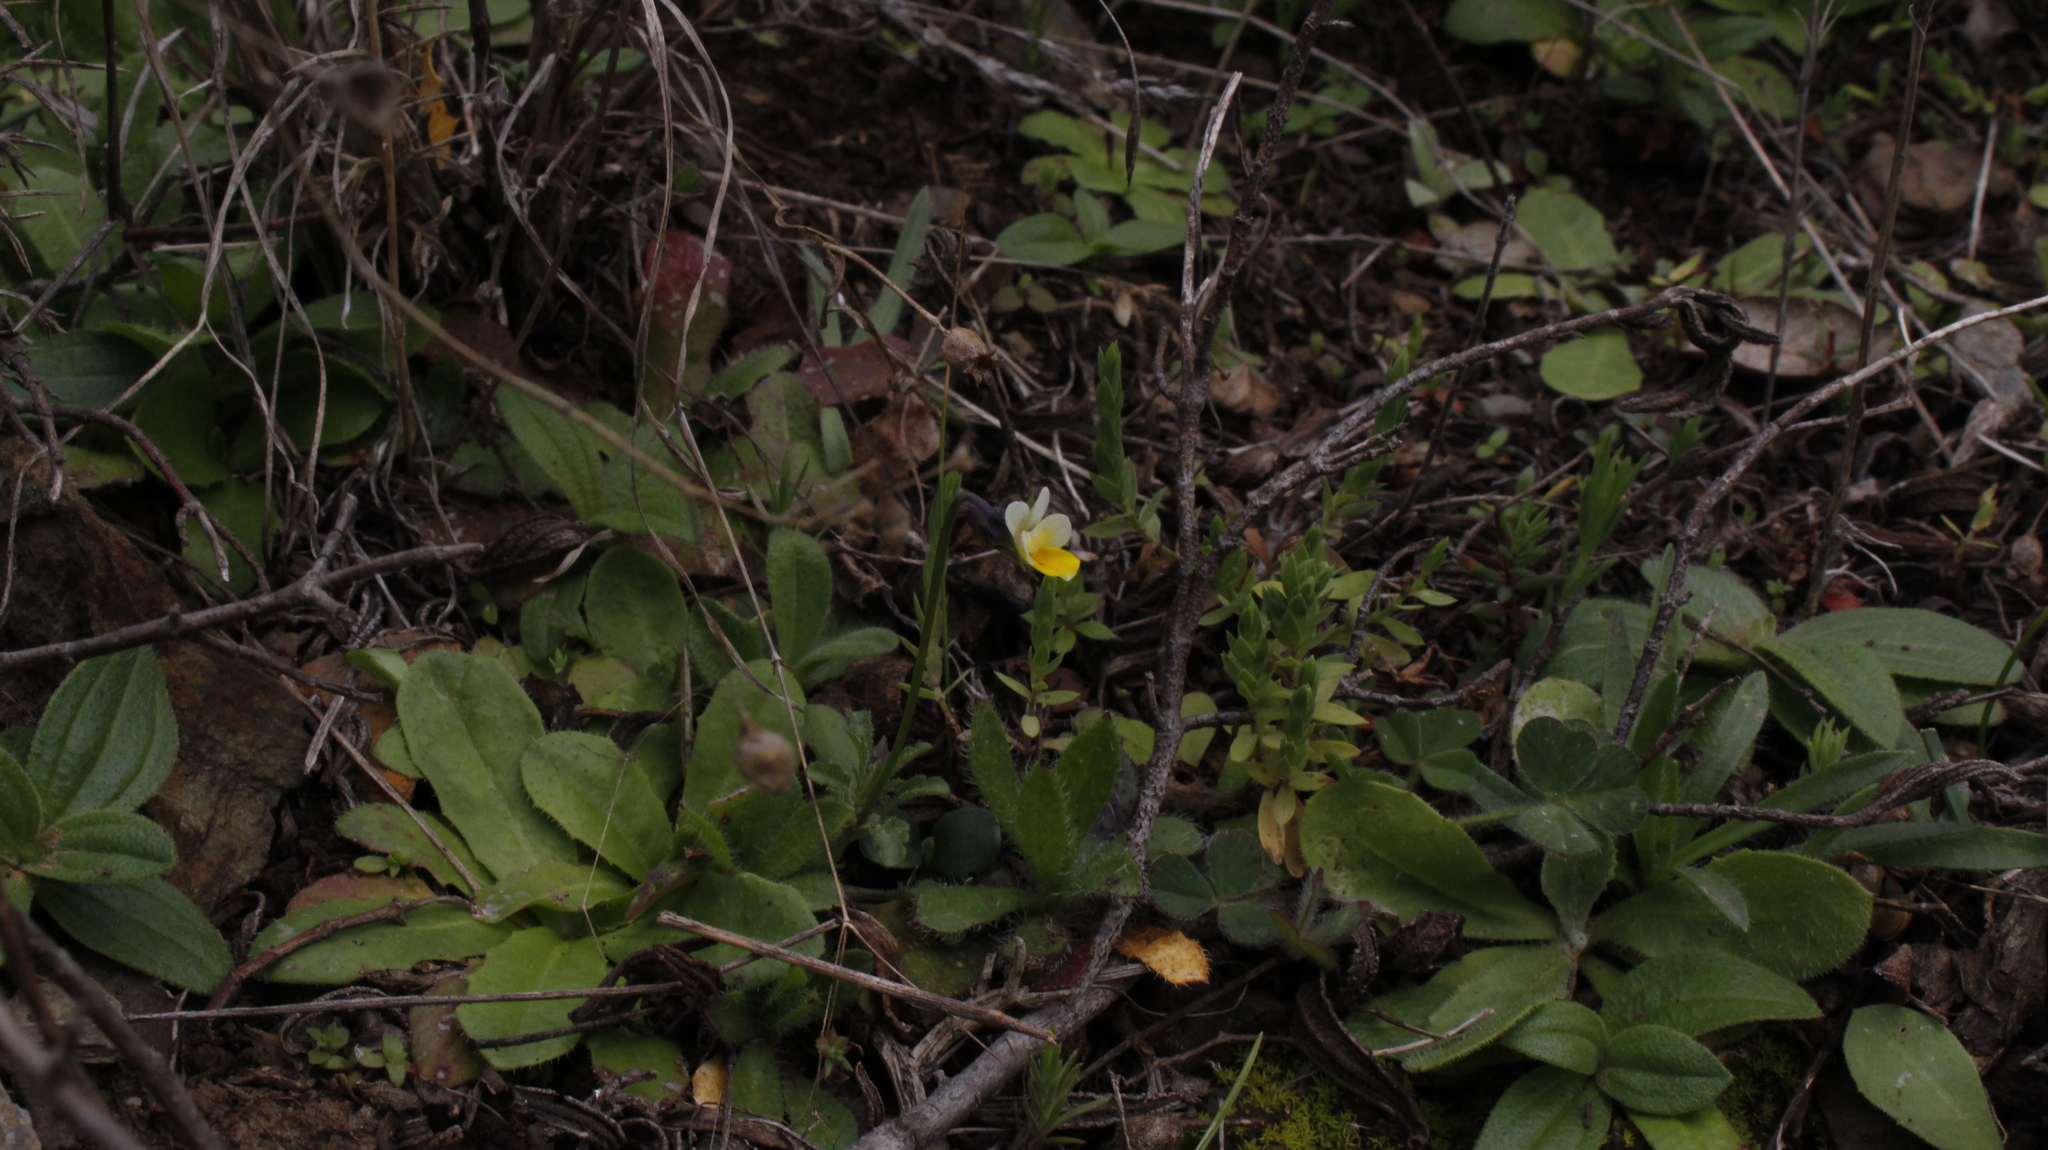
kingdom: Plantae
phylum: Tracheophyta
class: Magnoliopsida
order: Malpighiales
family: Violaceae
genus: Viola
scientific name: Viola kitaibeliana
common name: Dwarf pansy
